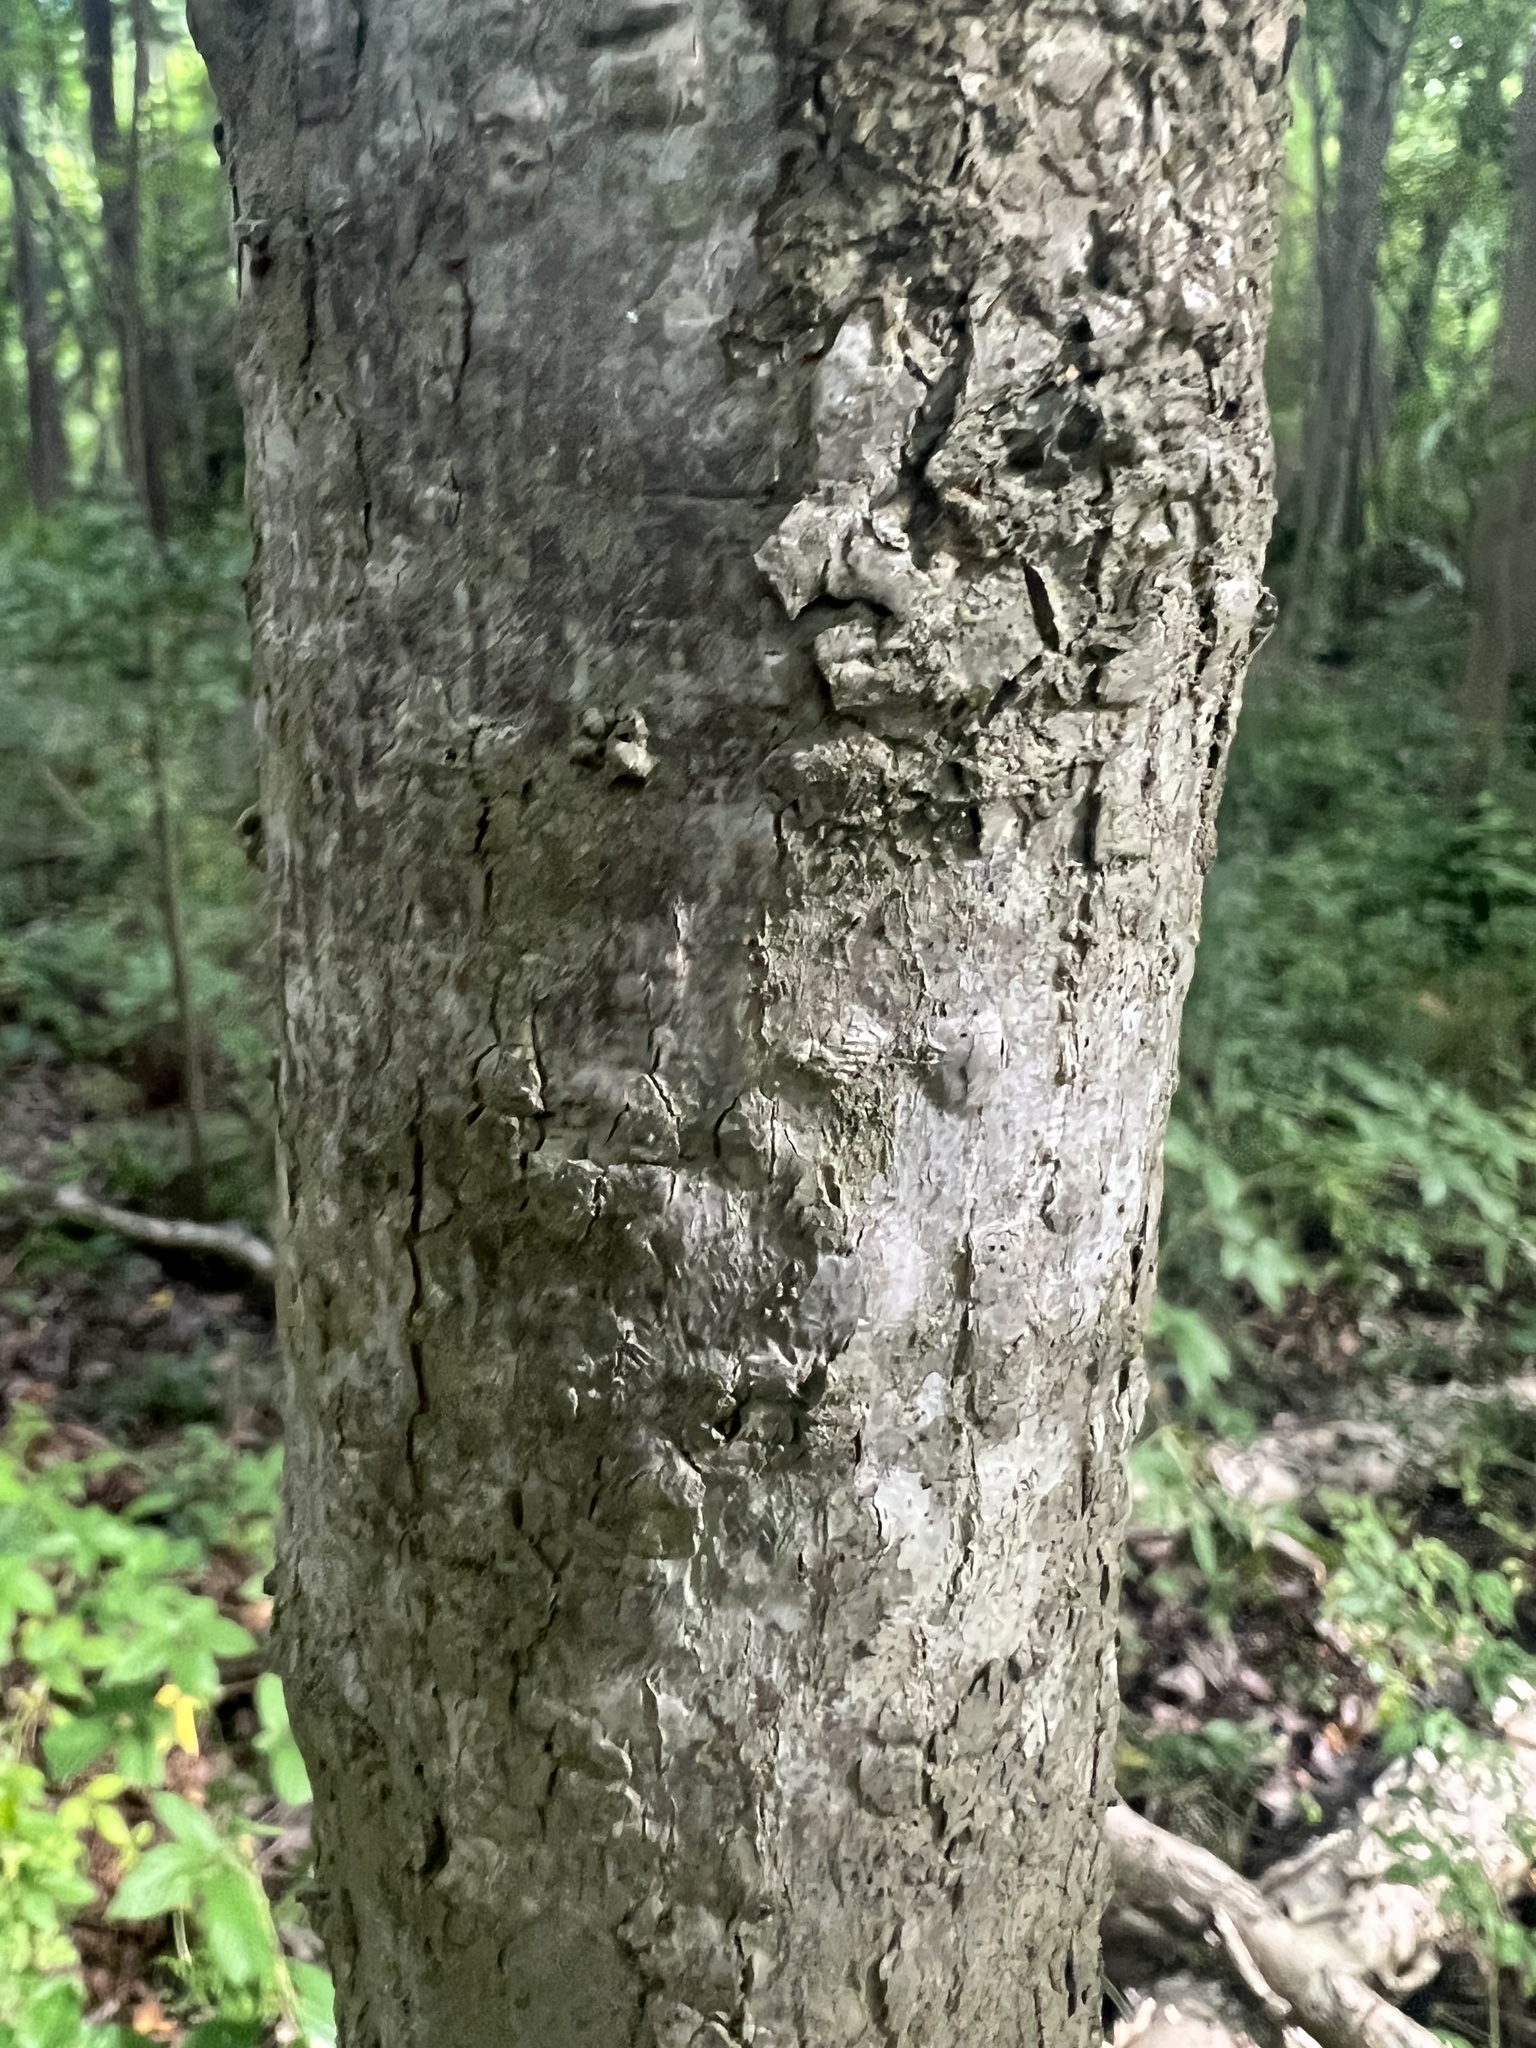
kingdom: Plantae
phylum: Tracheophyta
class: Magnoliopsida
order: Saxifragales
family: Altingiaceae
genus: Liquidambar
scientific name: Liquidambar styraciflua
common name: Sweet gum
